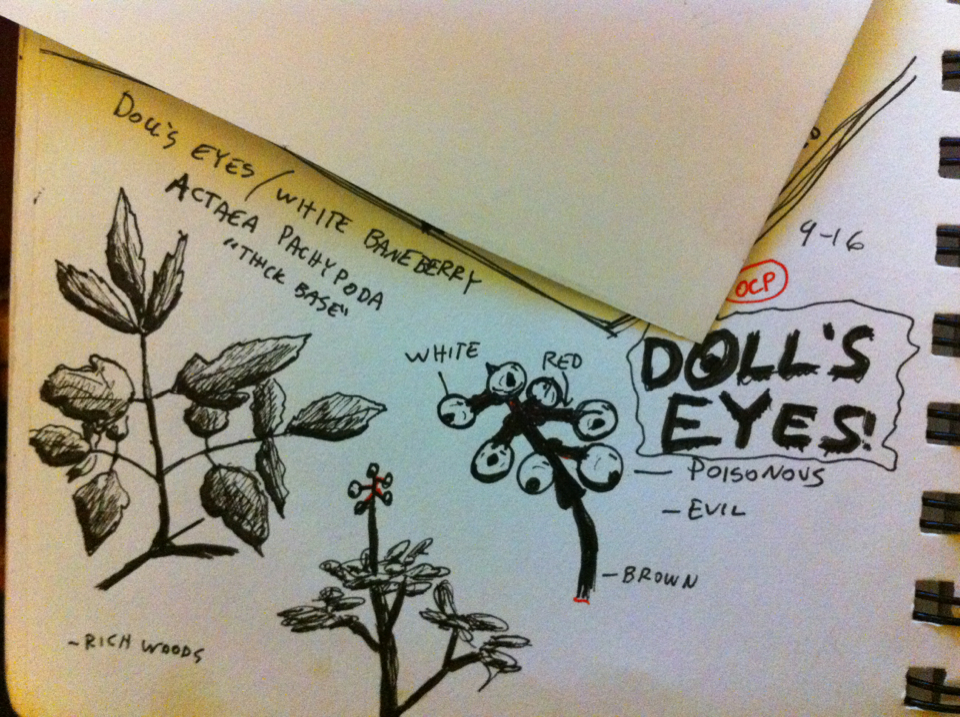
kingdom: Plantae
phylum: Tracheophyta
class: Magnoliopsida
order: Ranunculales
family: Ranunculaceae
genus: Actaea
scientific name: Actaea pachypoda
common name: Doll's-eyes
